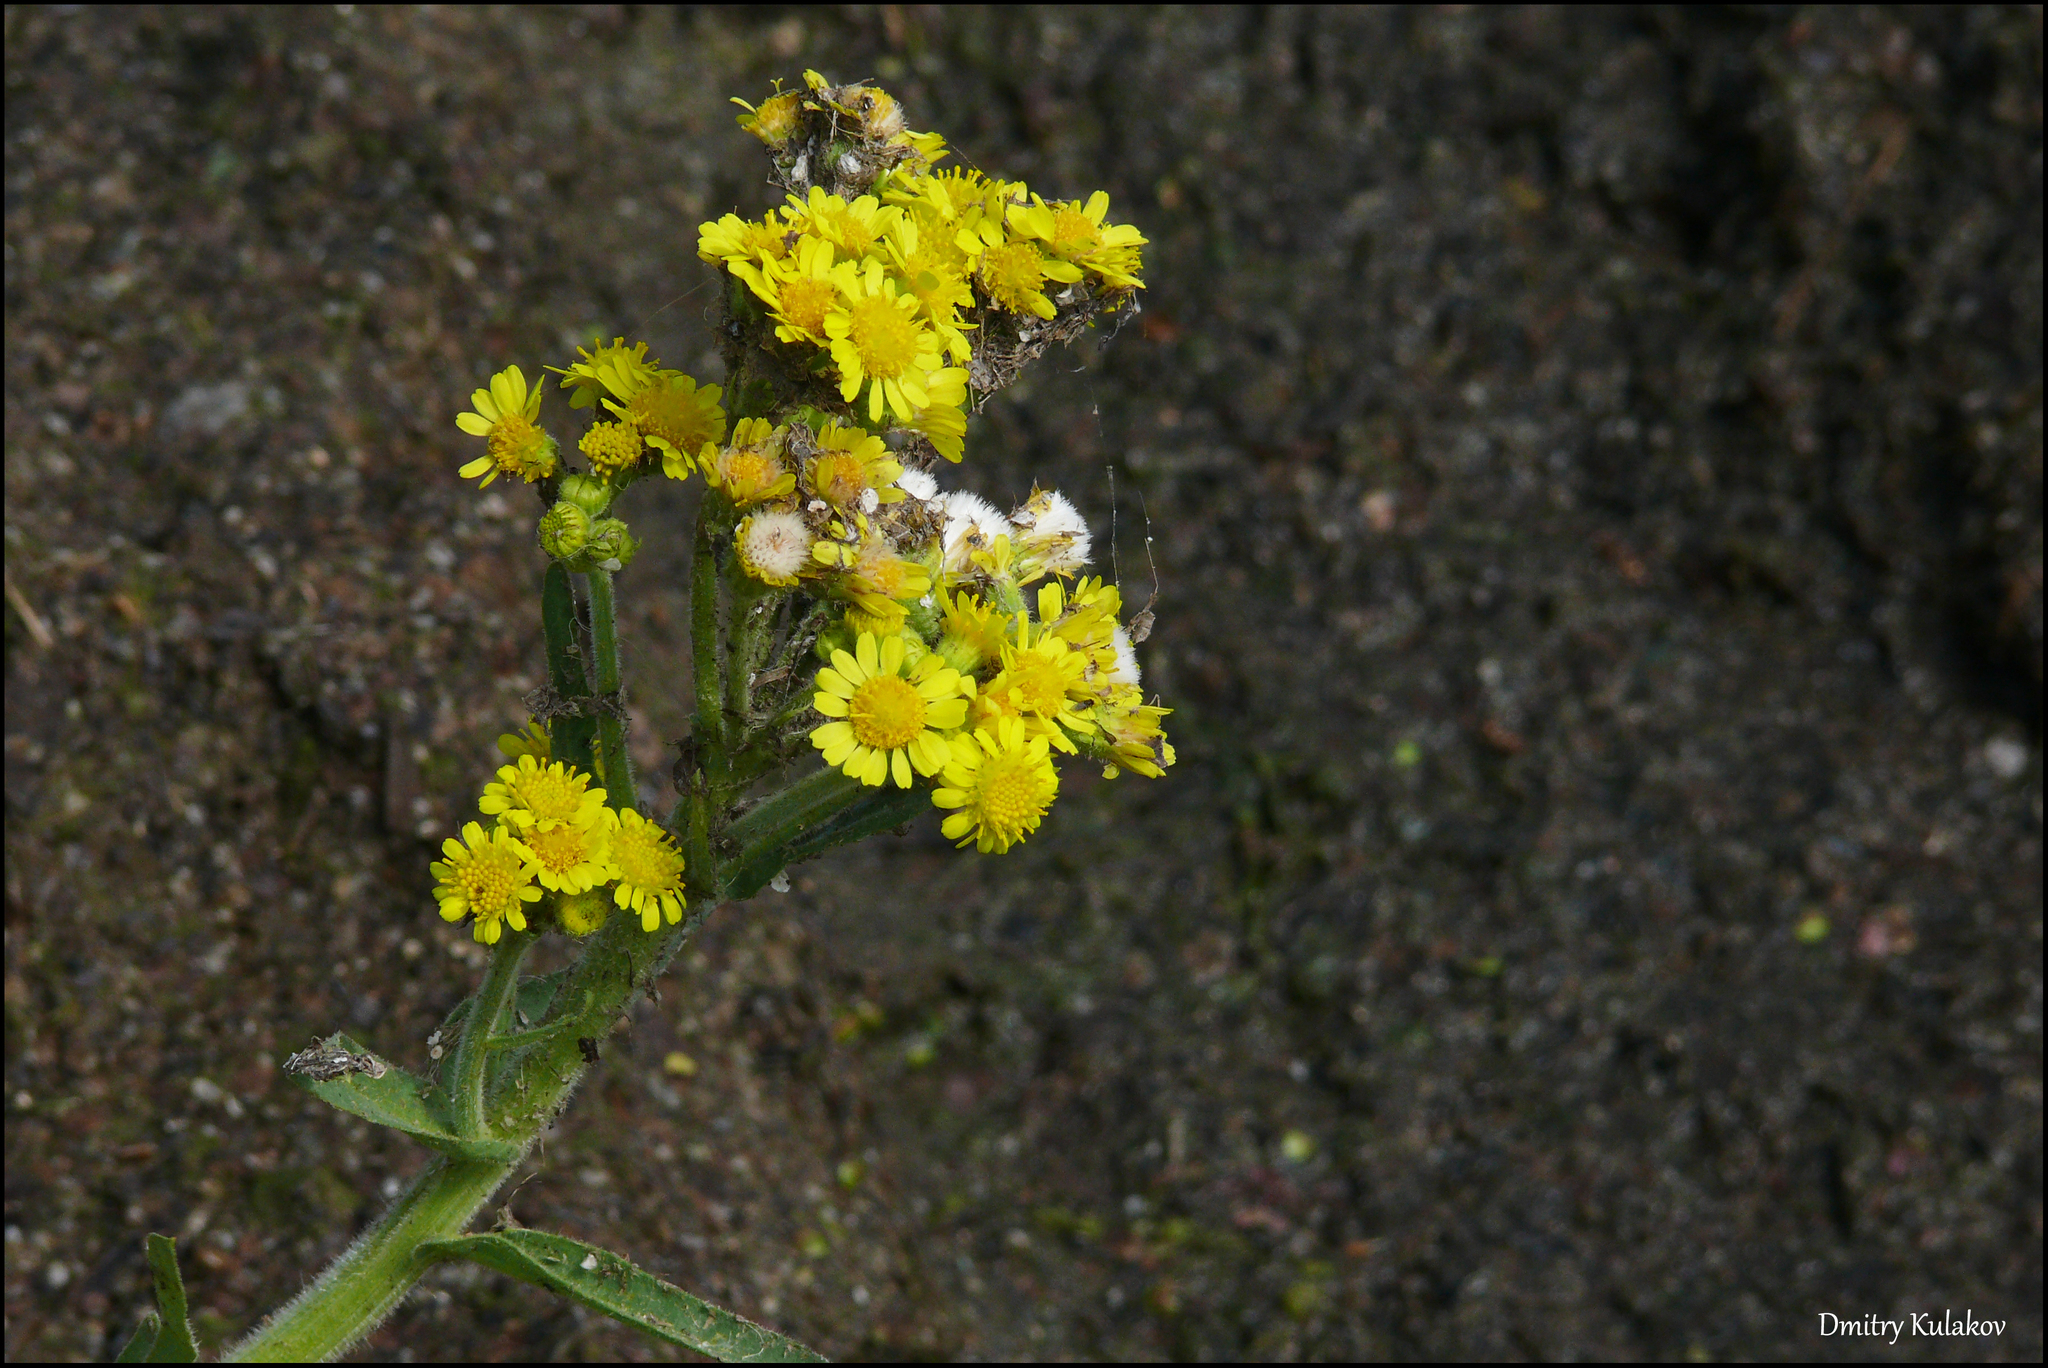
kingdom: Plantae
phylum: Tracheophyta
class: Magnoliopsida
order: Asterales
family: Asteraceae
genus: Tephroseris
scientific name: Tephroseris palustris
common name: Marsh fleawort
